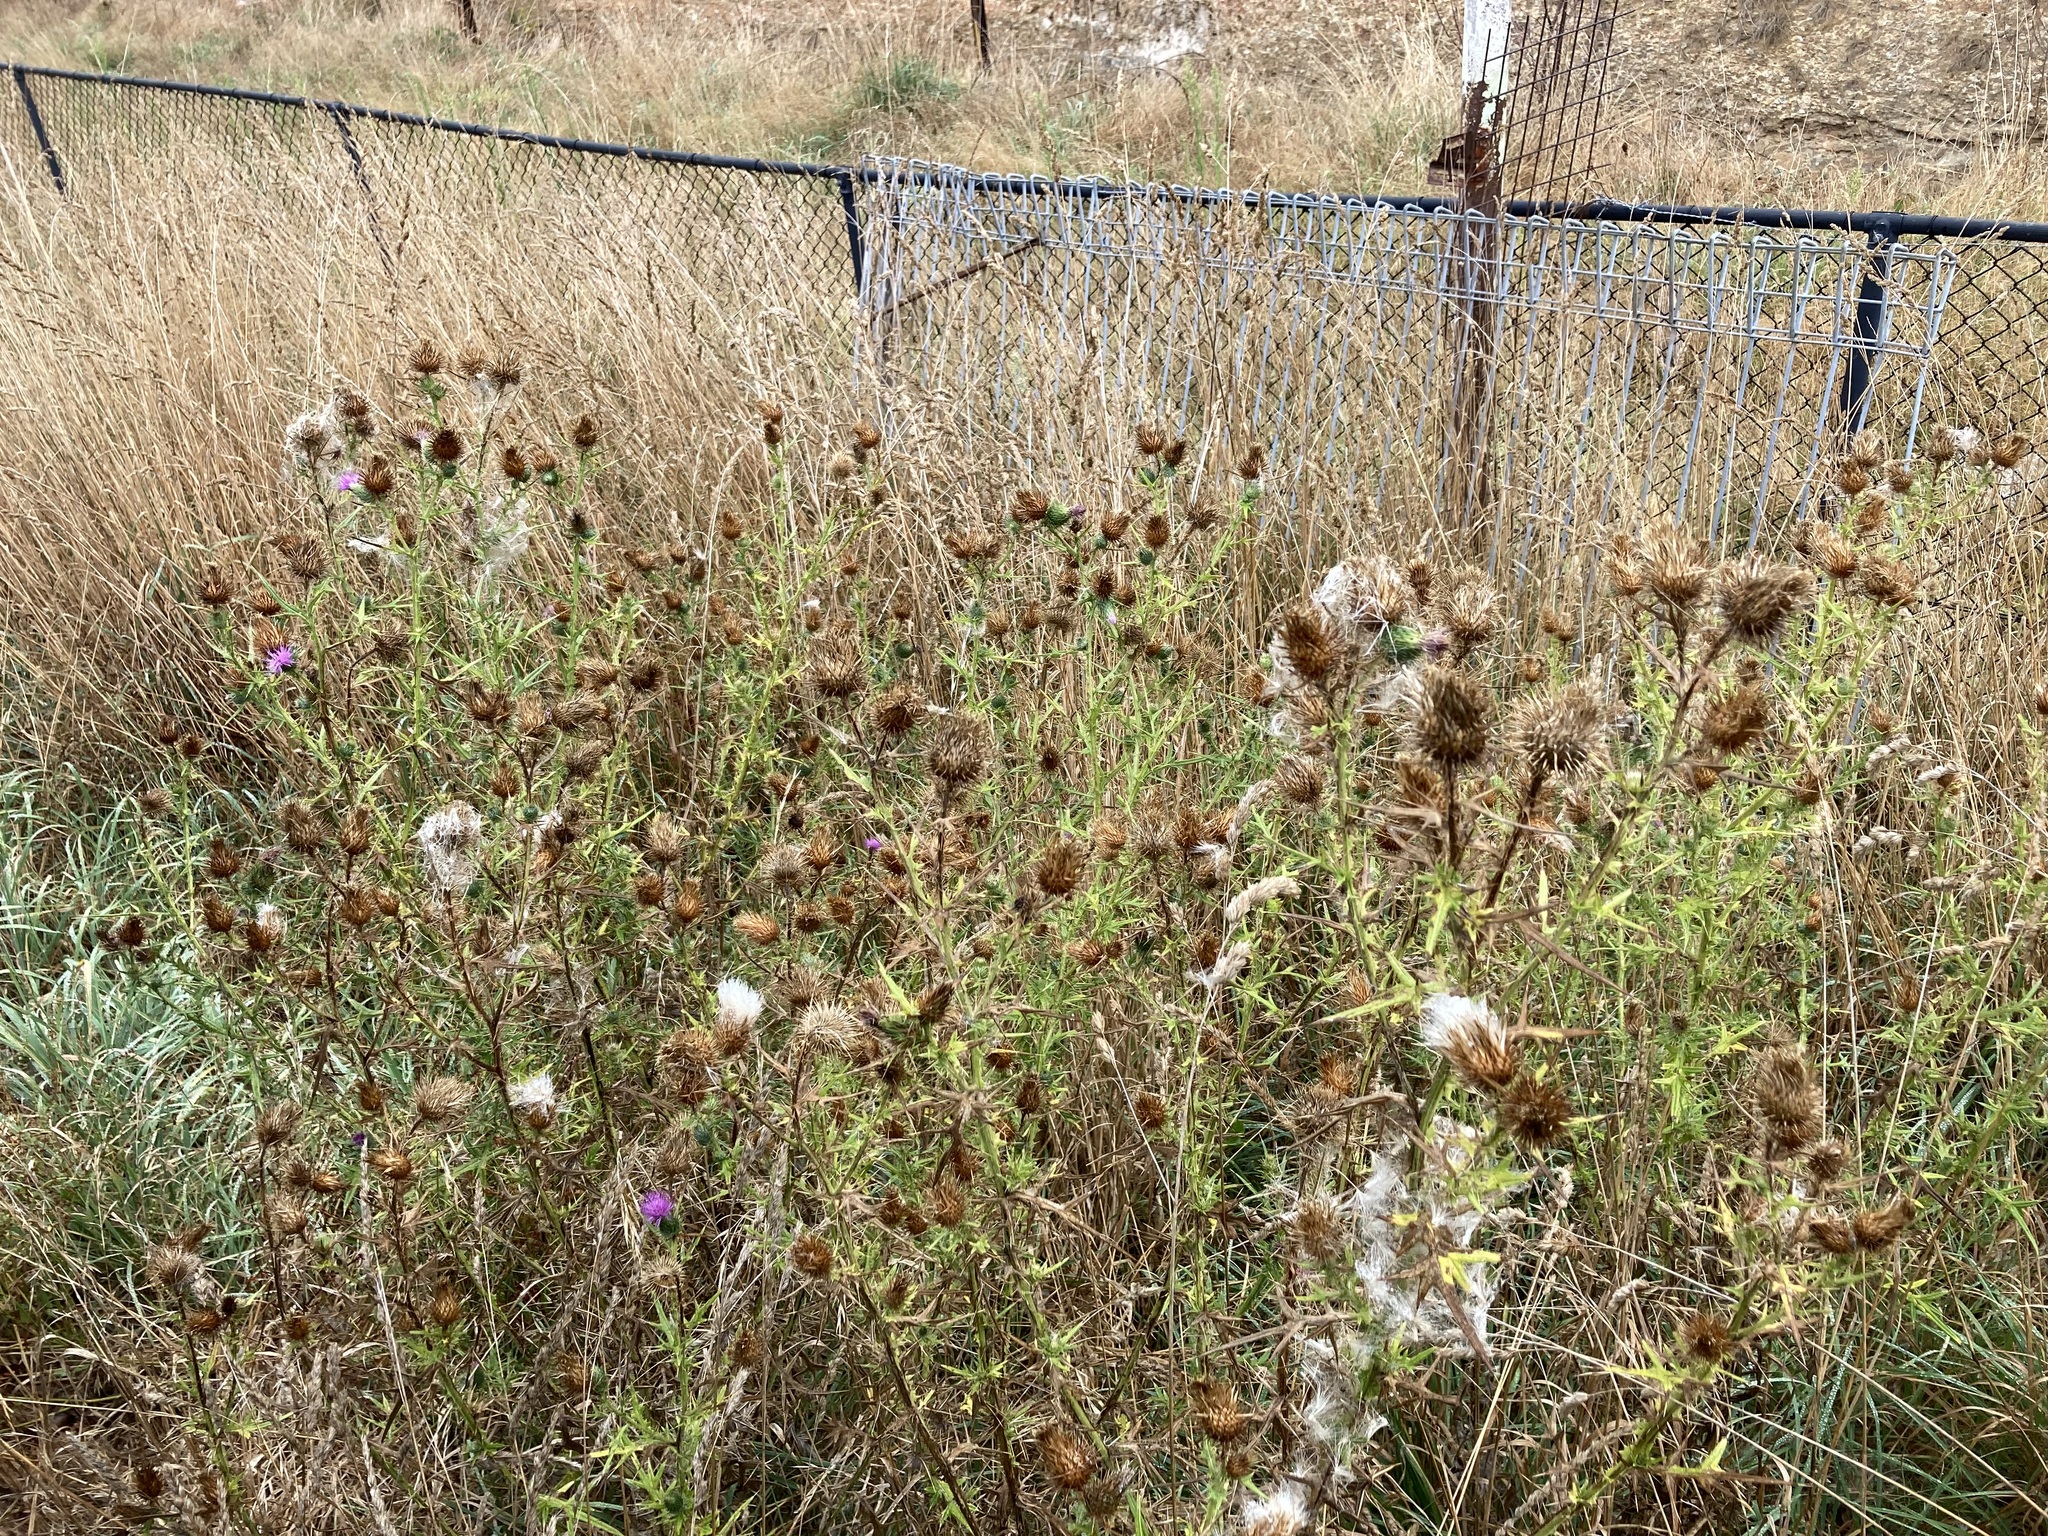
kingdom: Plantae
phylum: Tracheophyta
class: Magnoliopsida
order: Asterales
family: Asteraceae
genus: Cirsium
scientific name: Cirsium vulgare
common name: Bull thistle
